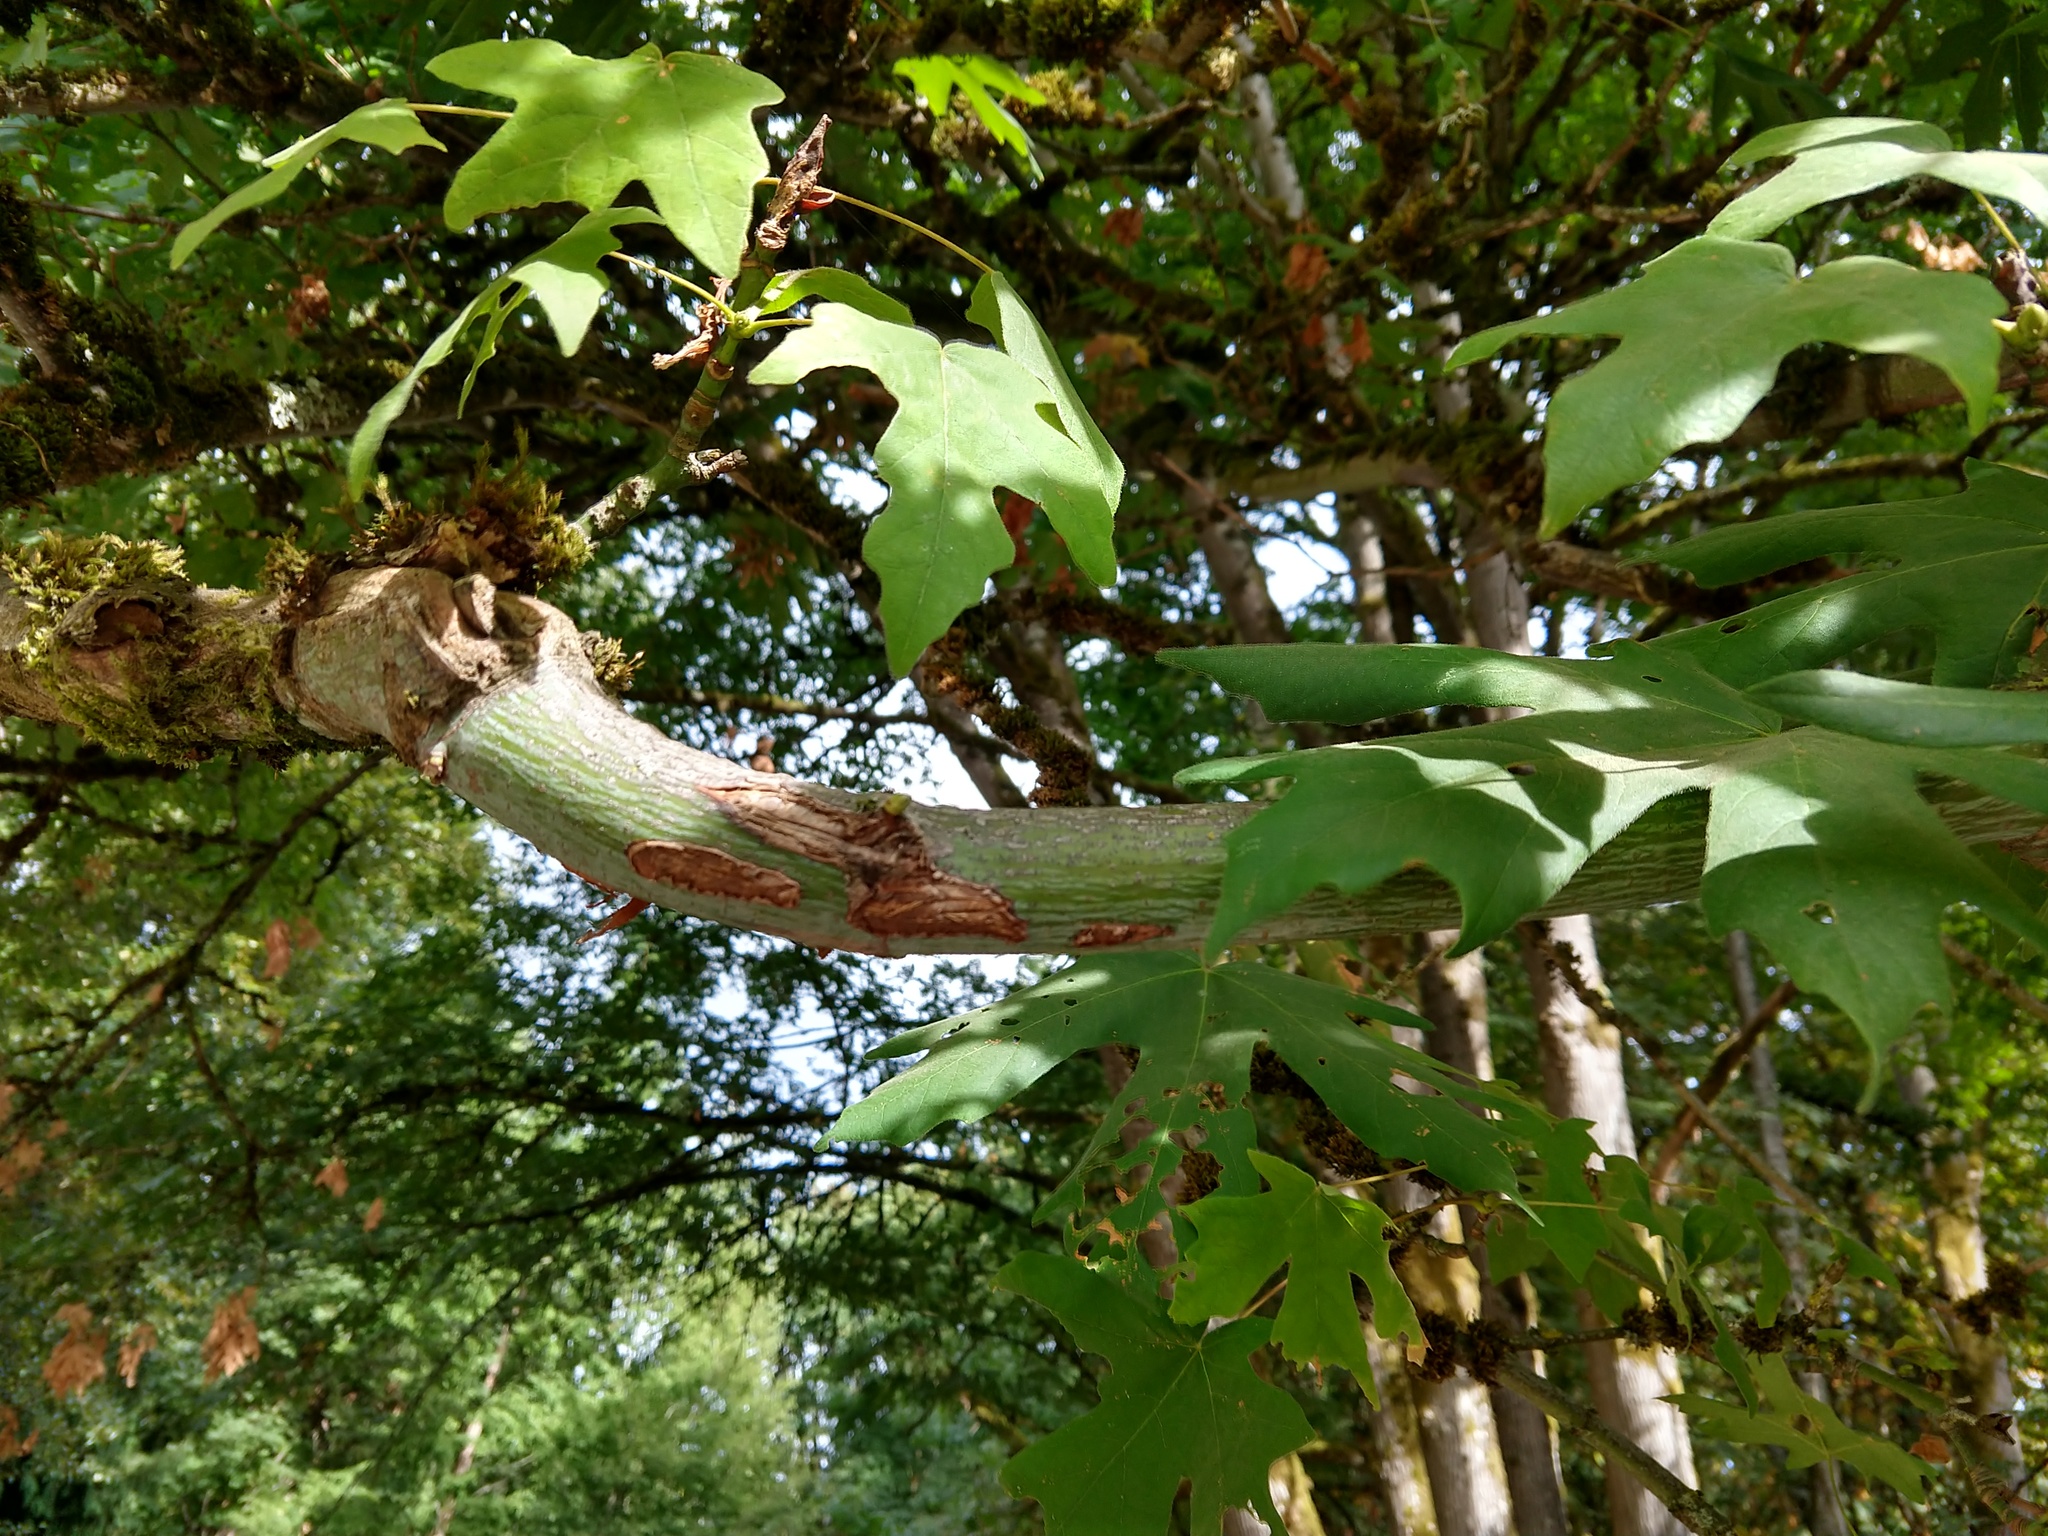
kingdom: Plantae
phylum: Tracheophyta
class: Magnoliopsida
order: Sapindales
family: Sapindaceae
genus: Acer
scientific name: Acer macrophyllum
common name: Oregon maple
